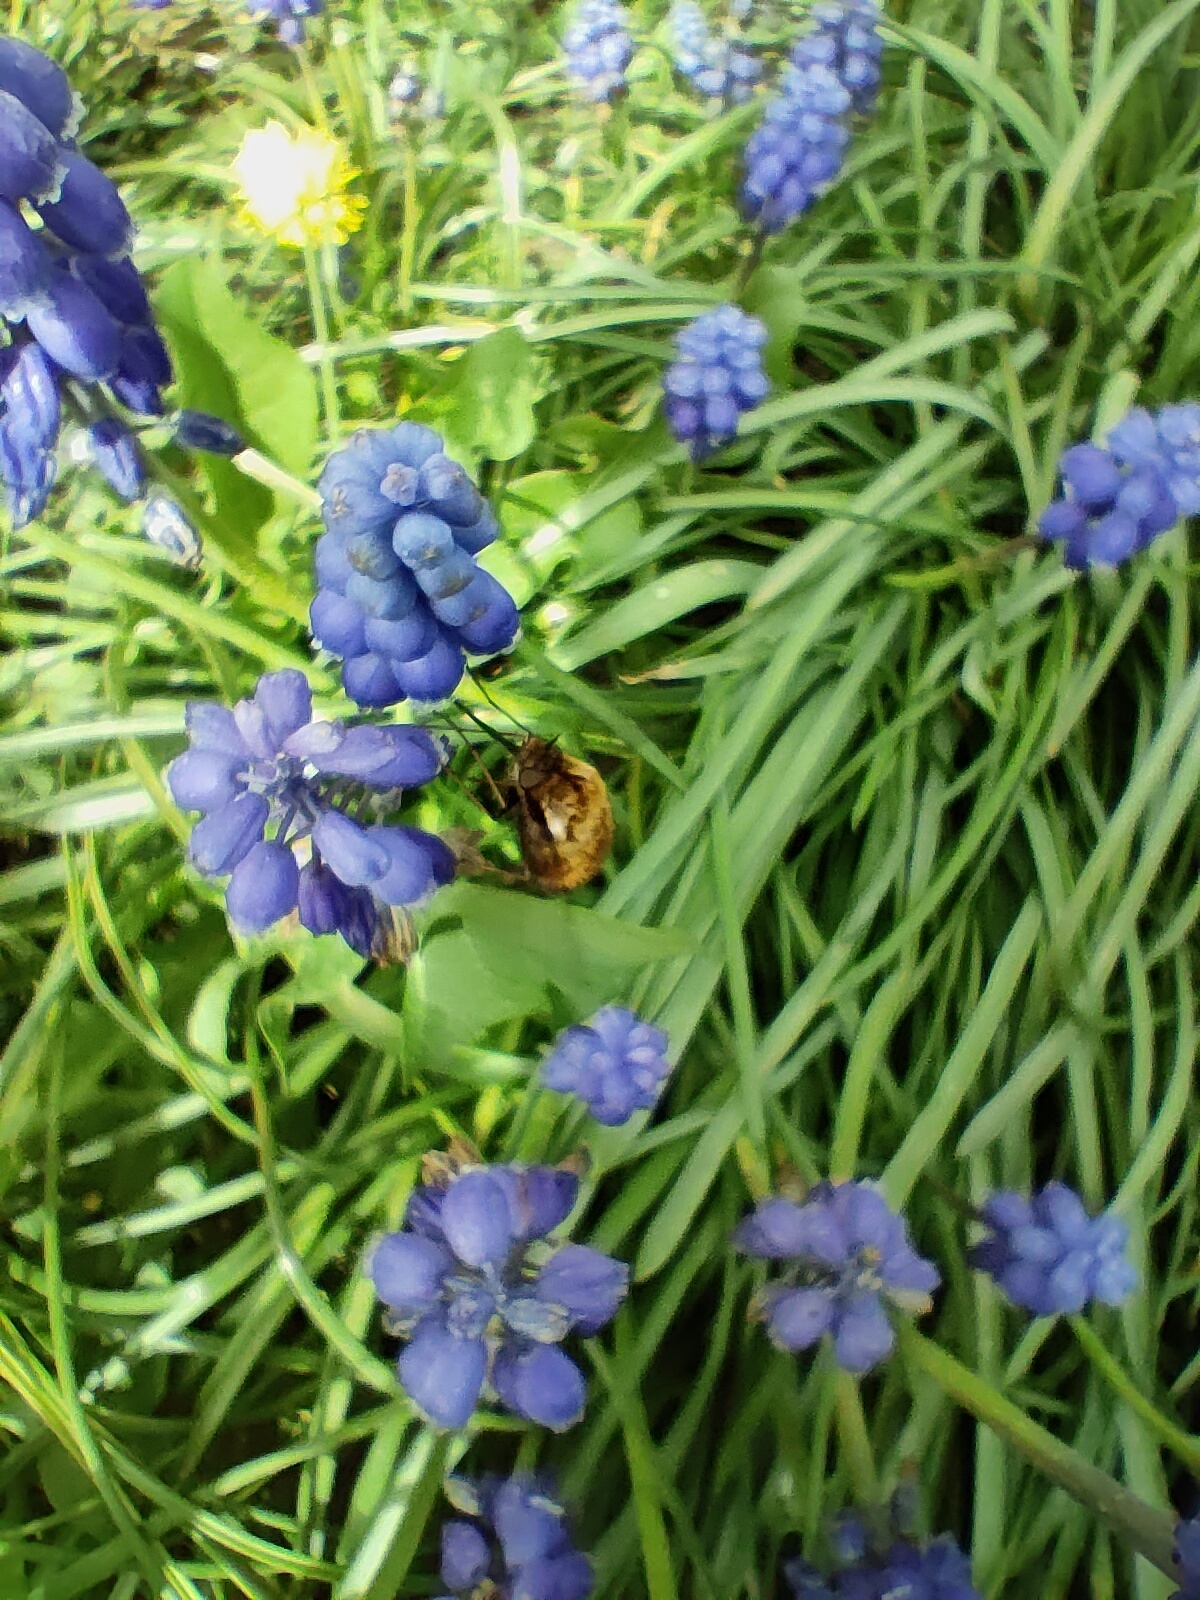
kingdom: Animalia
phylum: Arthropoda
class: Insecta
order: Diptera
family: Bombyliidae
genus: Bombylius
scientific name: Bombylius discolor
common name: Dotted bee-fly
